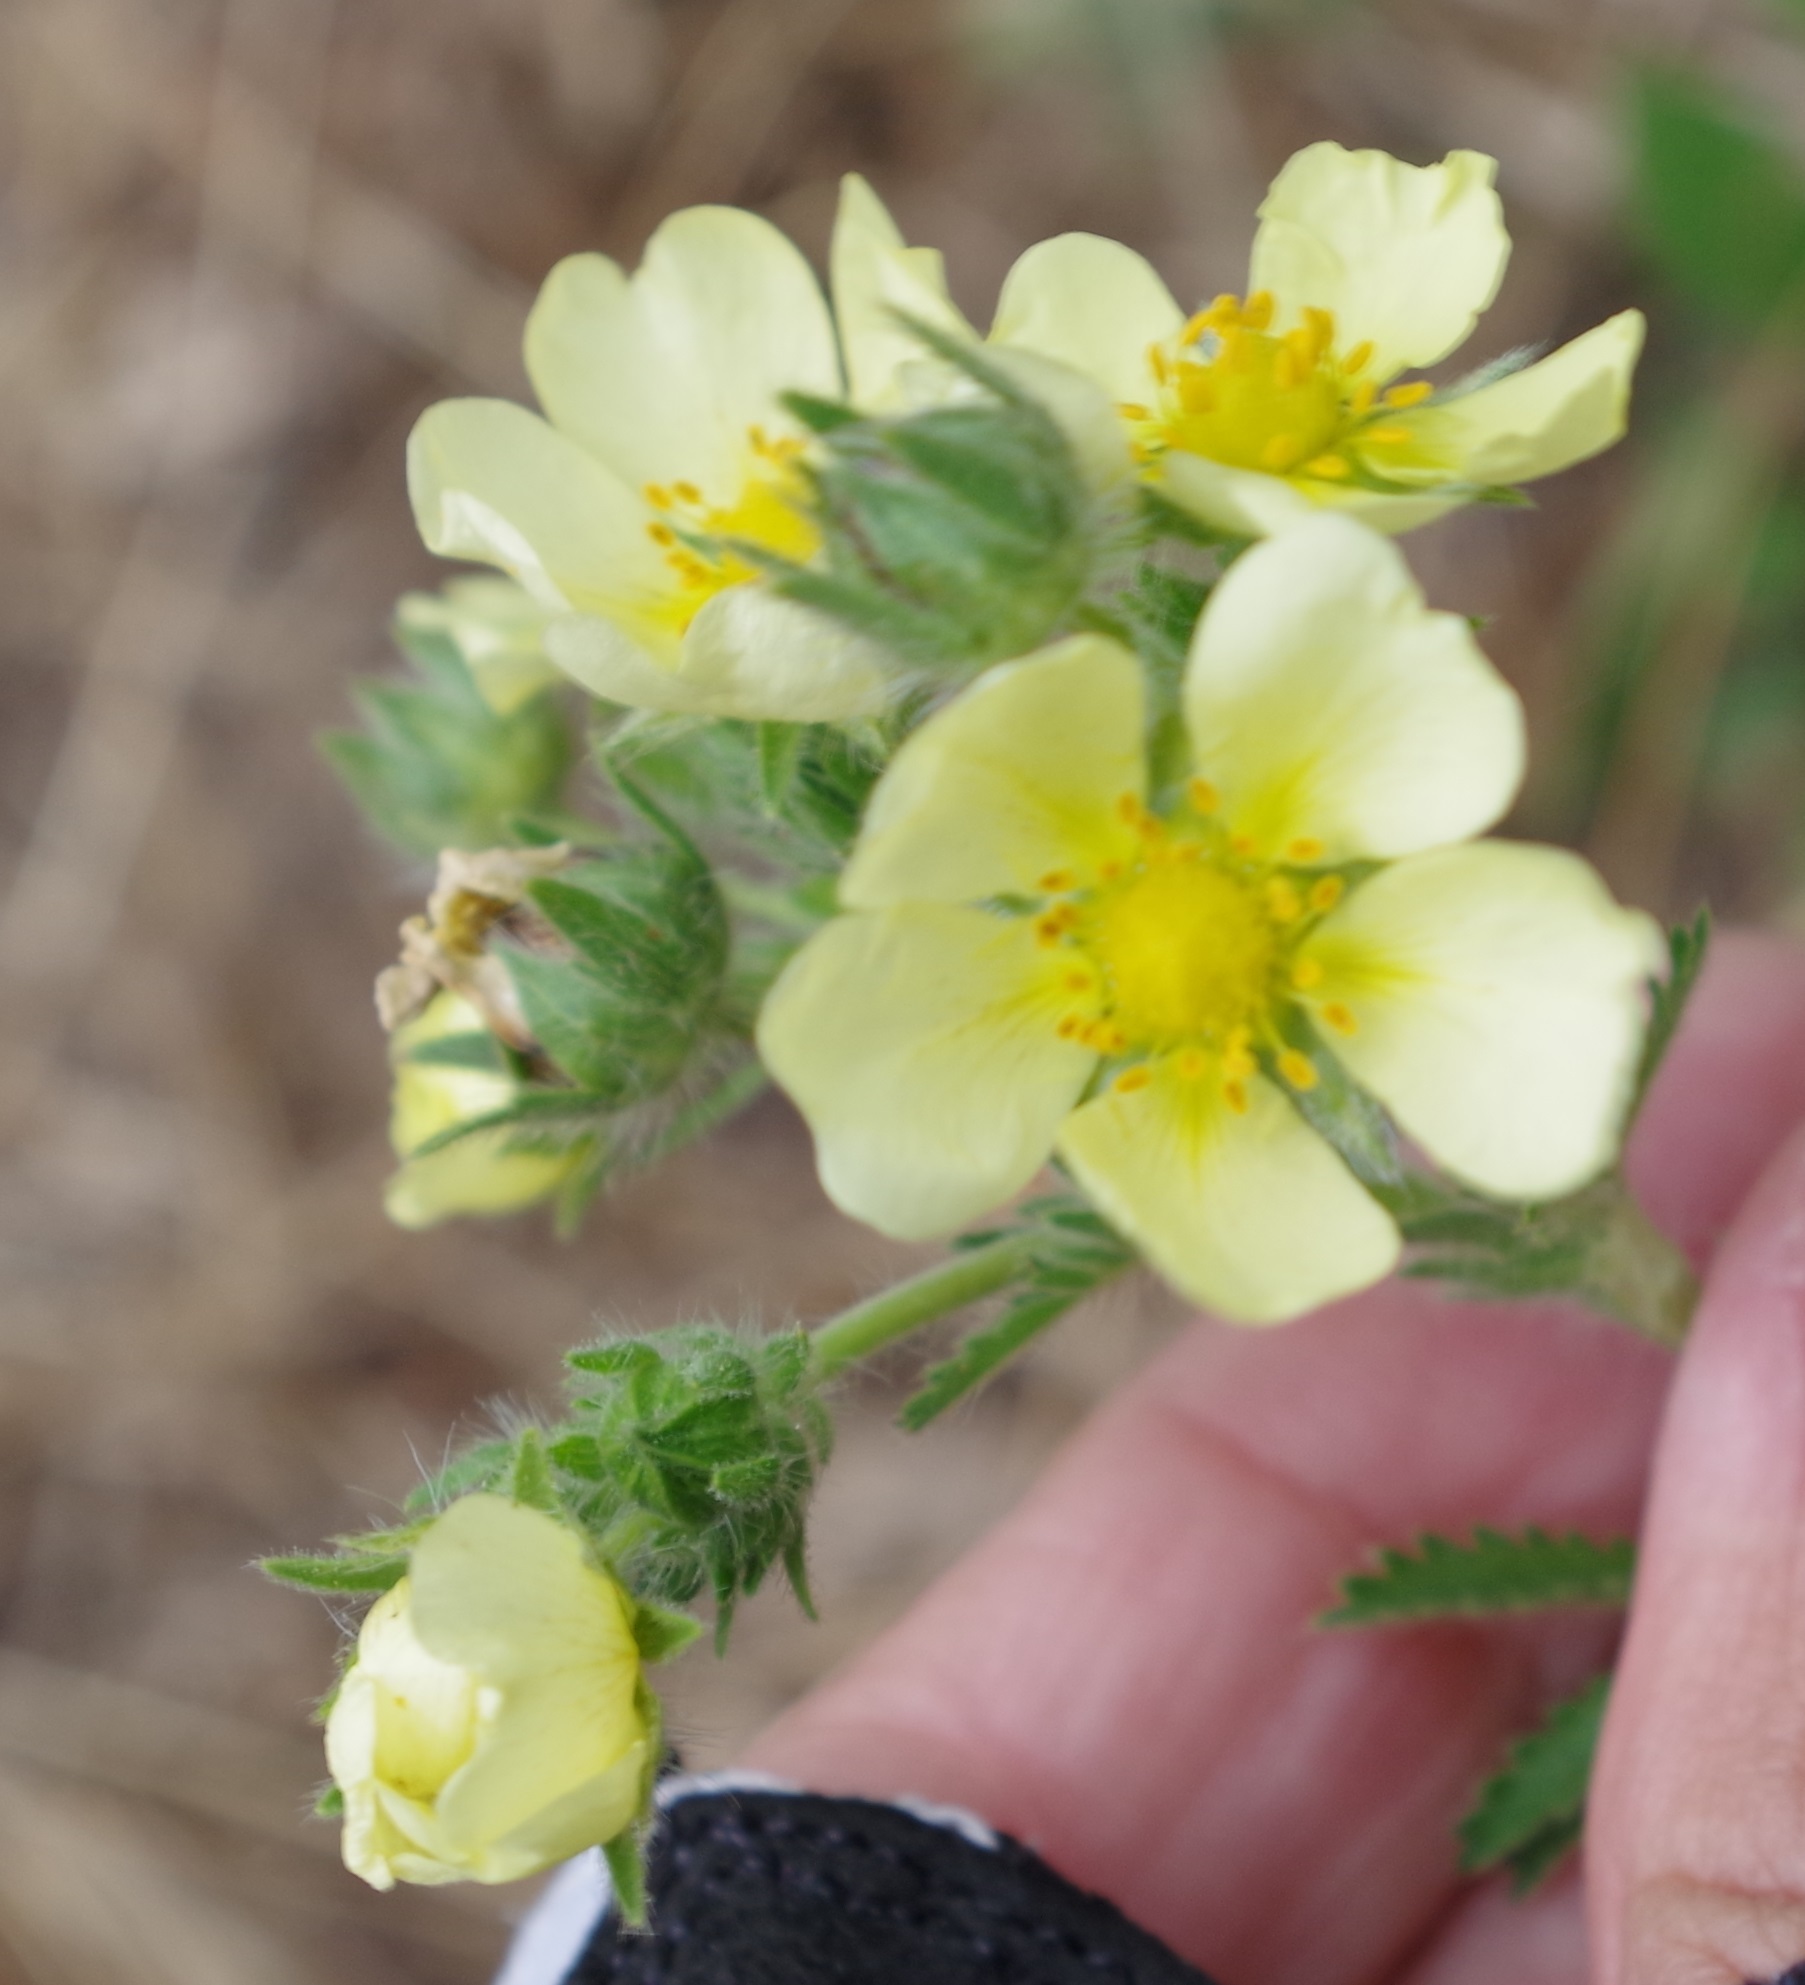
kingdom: Plantae
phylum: Tracheophyta
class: Magnoliopsida
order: Rosales
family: Rosaceae
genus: Potentilla
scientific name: Potentilla recta
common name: Sulphur cinquefoil
